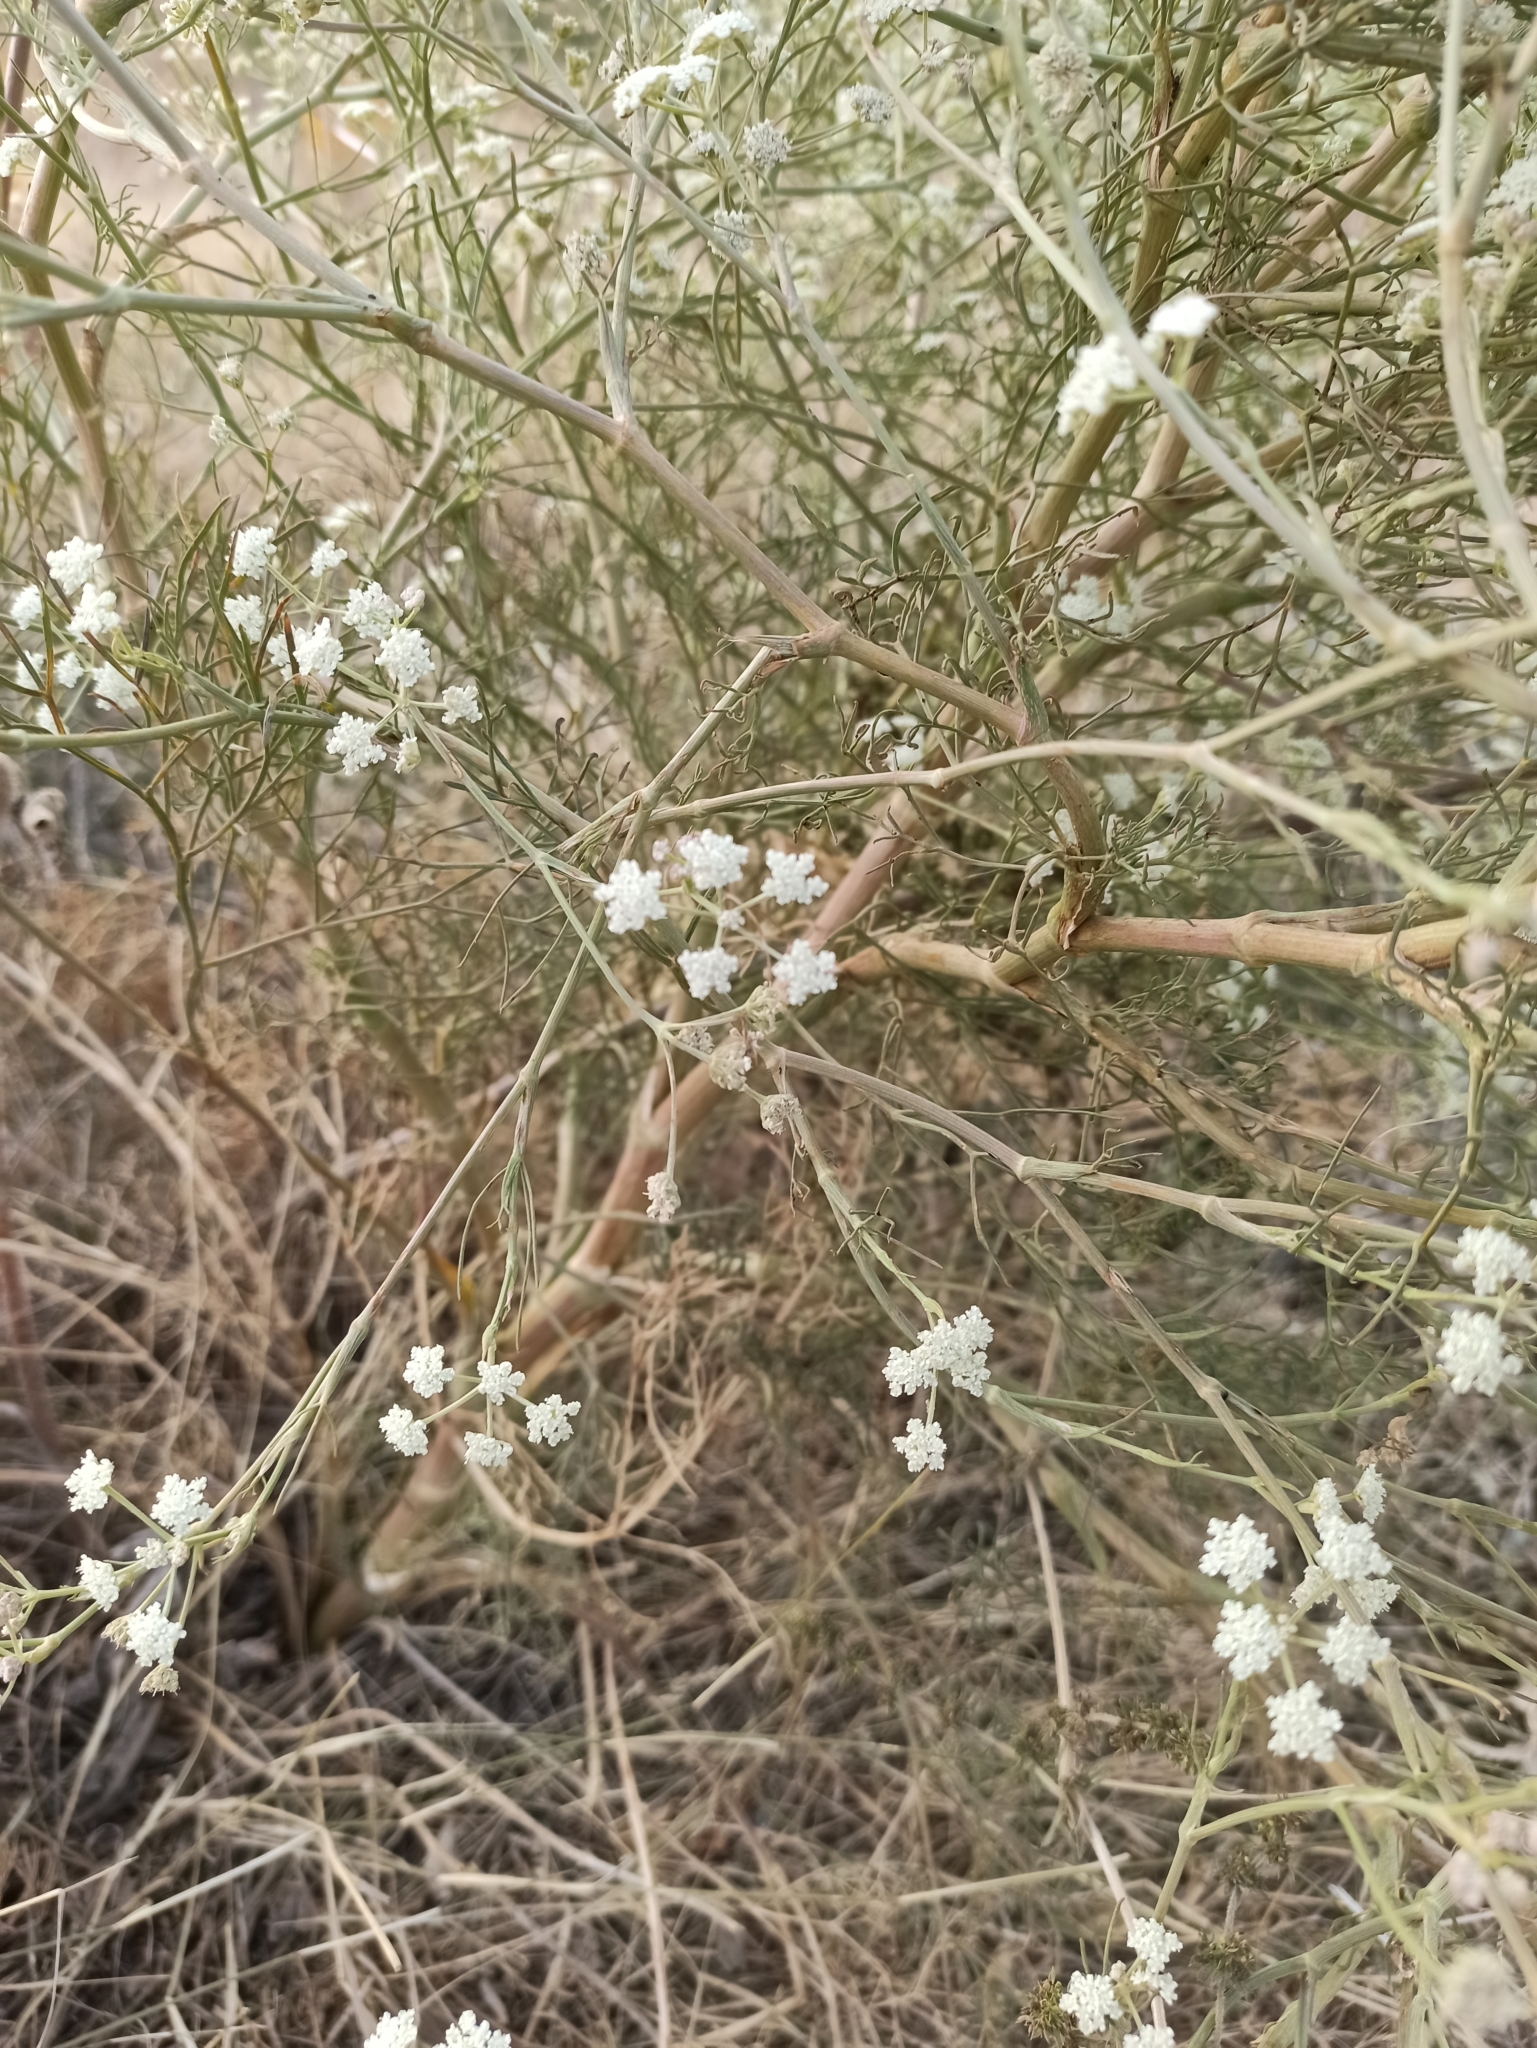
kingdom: Plantae
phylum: Tracheophyta
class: Magnoliopsida
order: Apiales
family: Apiaceae
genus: Seseli
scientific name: Seseli arenarium
